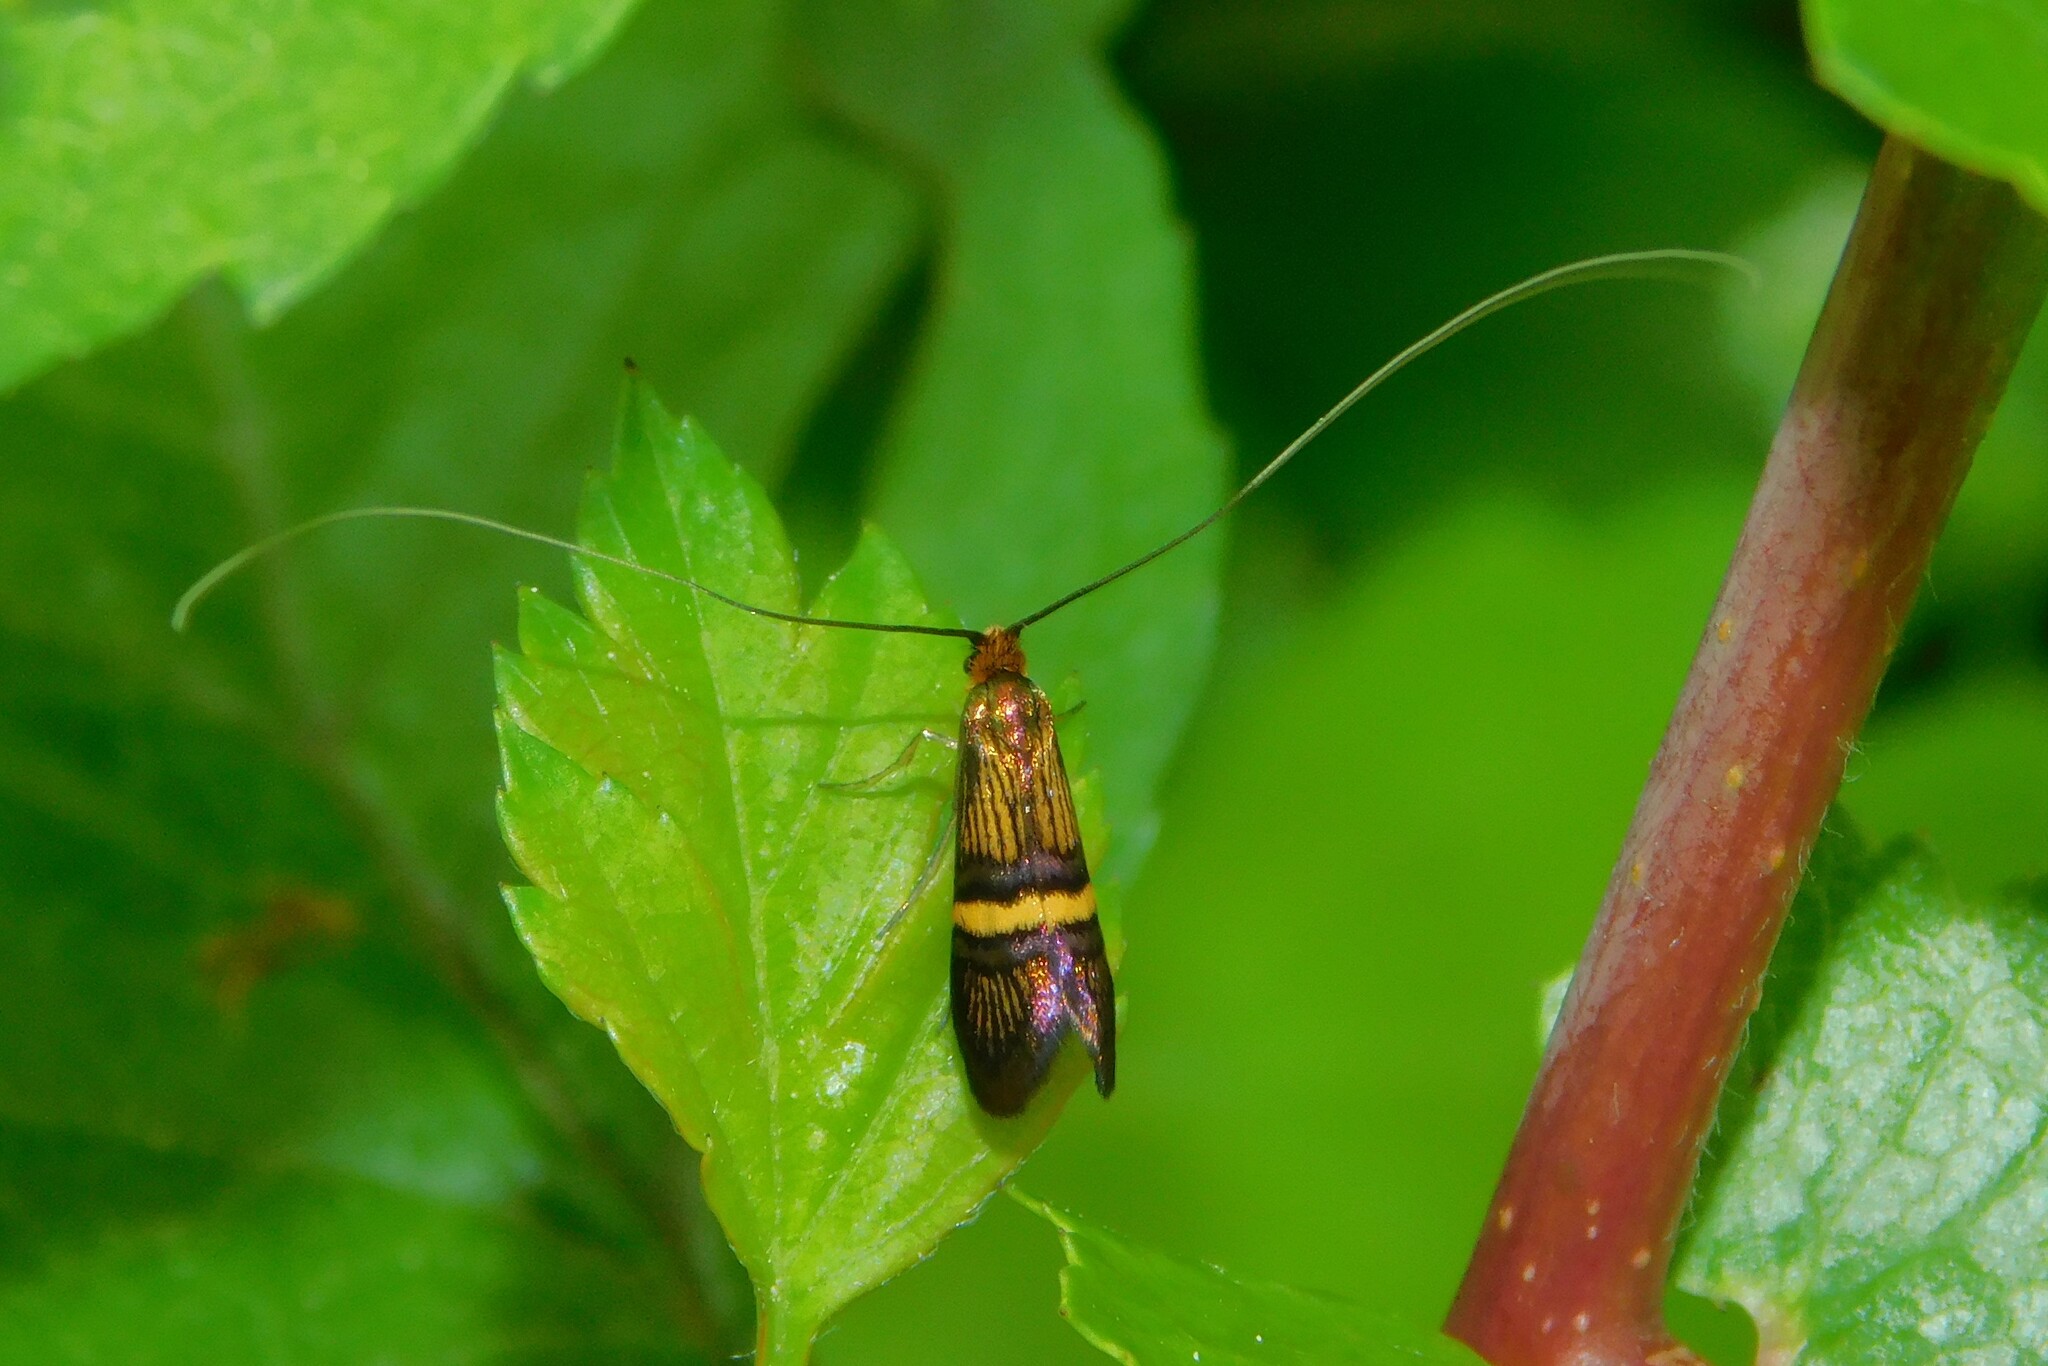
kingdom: Animalia
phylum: Arthropoda
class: Insecta
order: Lepidoptera
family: Adelidae
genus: Adela
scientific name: Adela croesella
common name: Small barred long-horn
